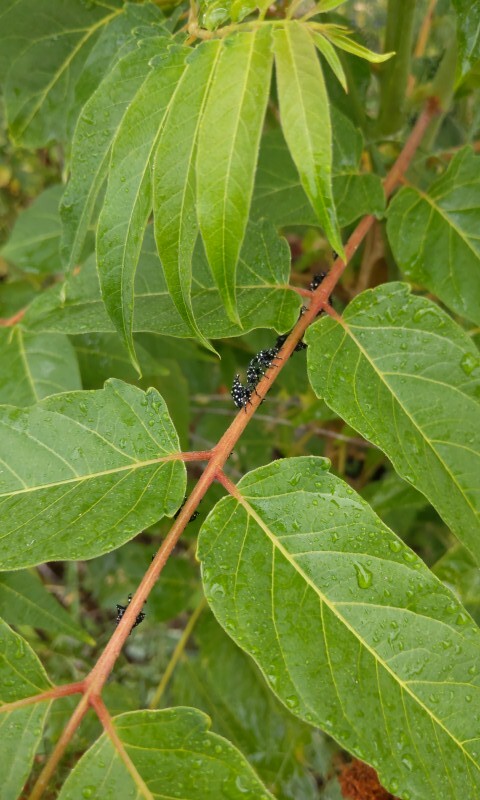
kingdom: Animalia
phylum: Arthropoda
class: Insecta
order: Hemiptera
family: Fulgoridae
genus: Lycorma
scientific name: Lycorma delicatula
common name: Spotted lanternfly
